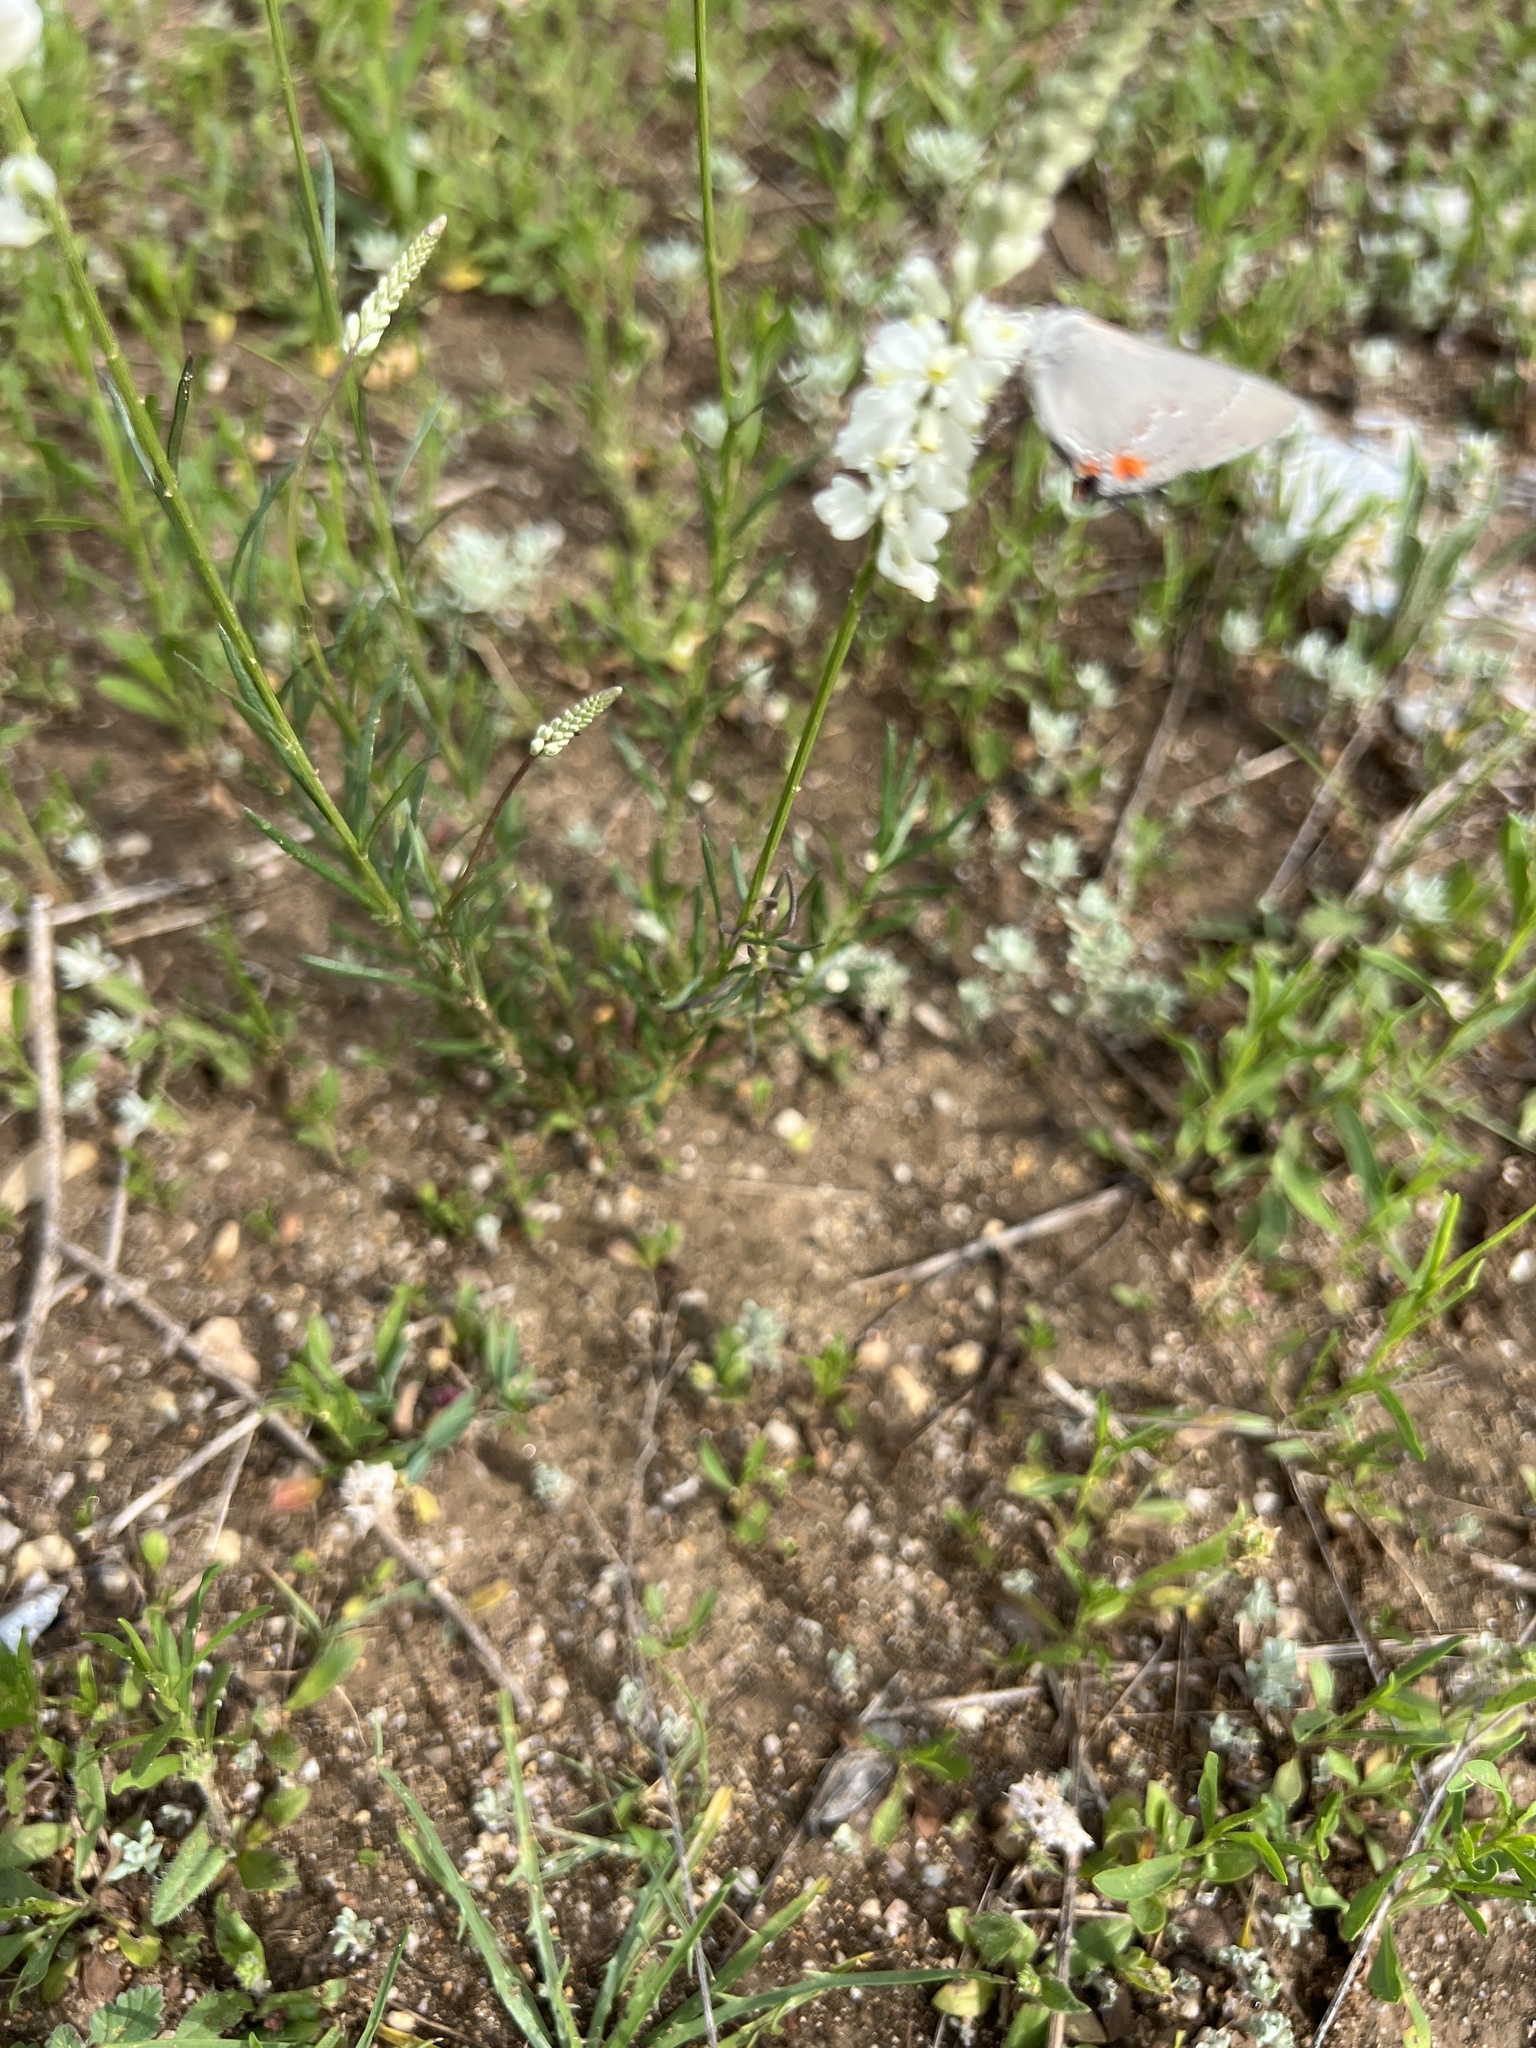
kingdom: Plantae
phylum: Tracheophyta
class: Magnoliopsida
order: Fabales
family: Polygalaceae
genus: Polygala
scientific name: Polygala alba
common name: White milkwort
